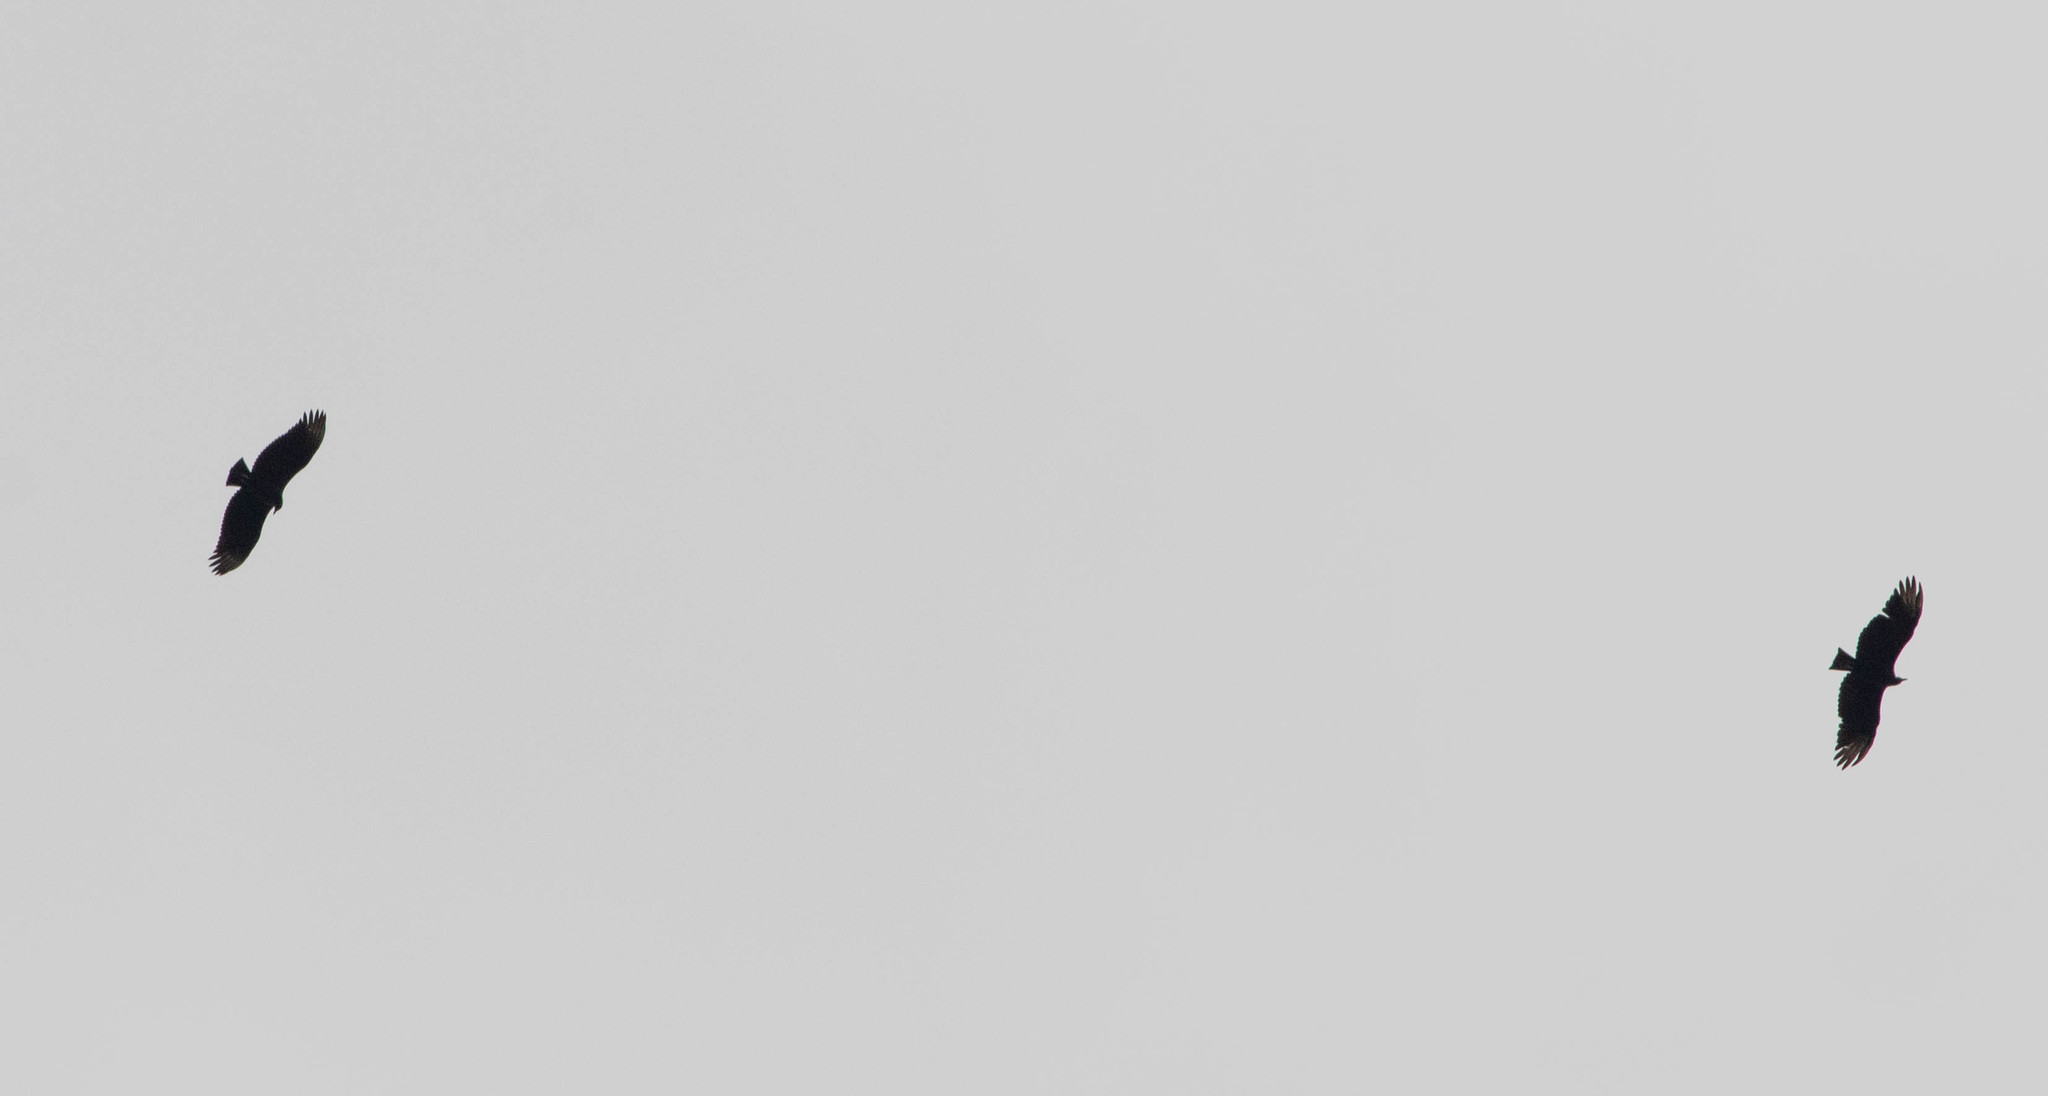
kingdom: Animalia
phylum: Chordata
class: Aves
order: Accipitriformes
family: Cathartidae
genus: Coragyps
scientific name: Coragyps atratus
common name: Black vulture
